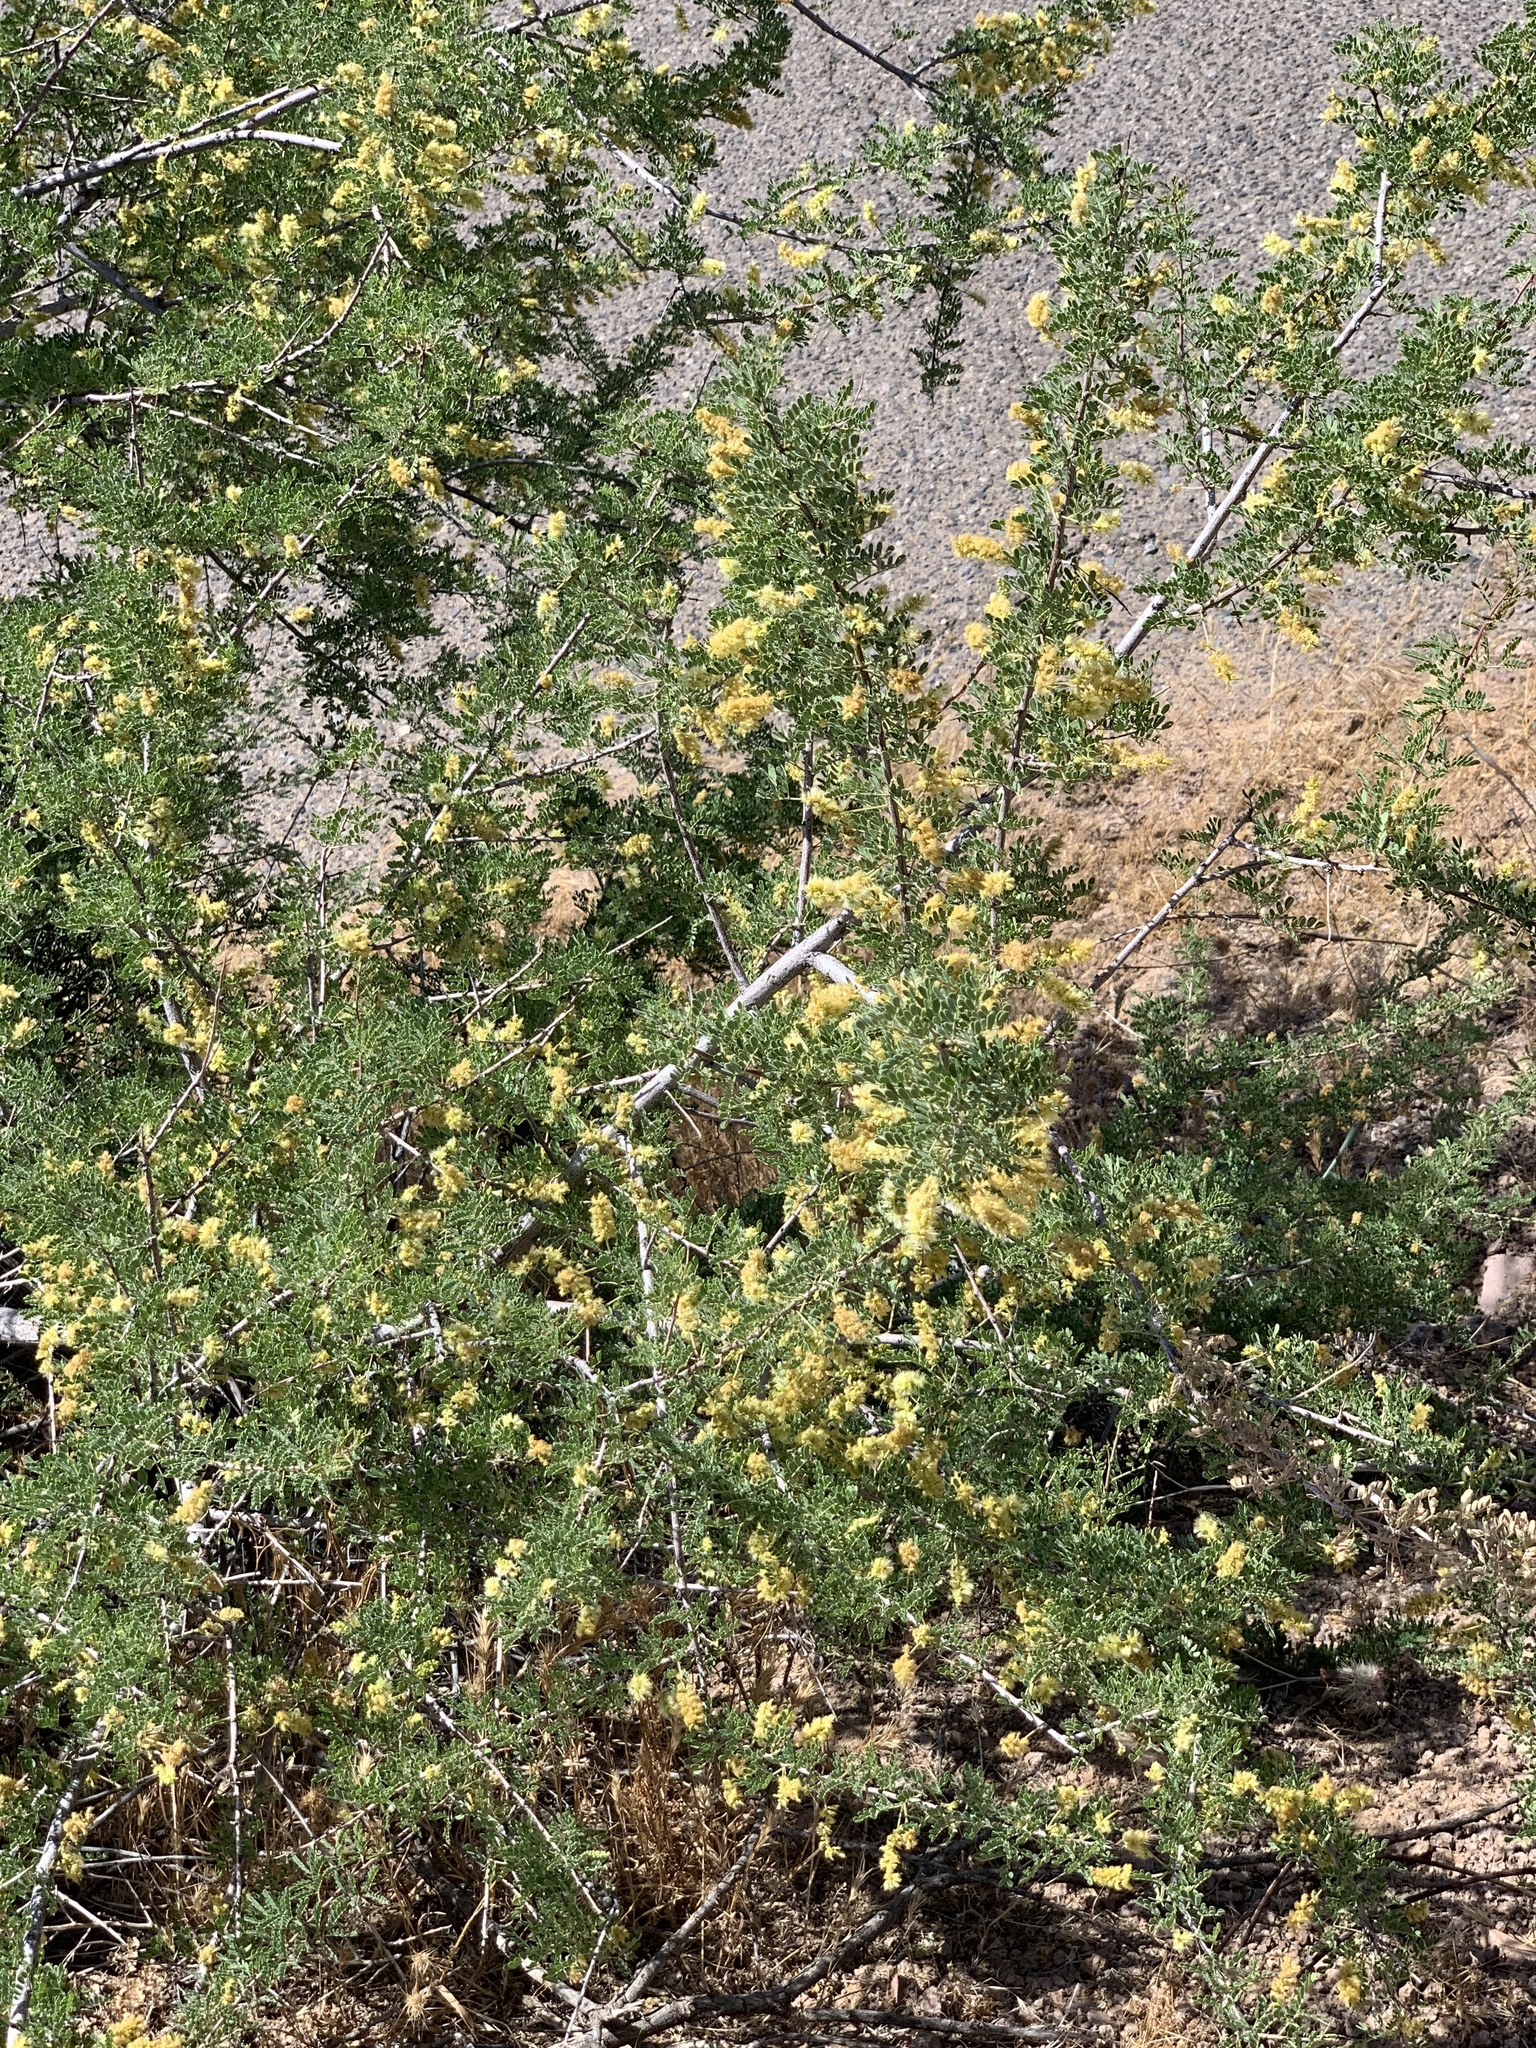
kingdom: Plantae
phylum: Tracheophyta
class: Magnoliopsida
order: Fabales
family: Fabaceae
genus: Senegalia
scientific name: Senegalia greggii
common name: Texas-mimosa
